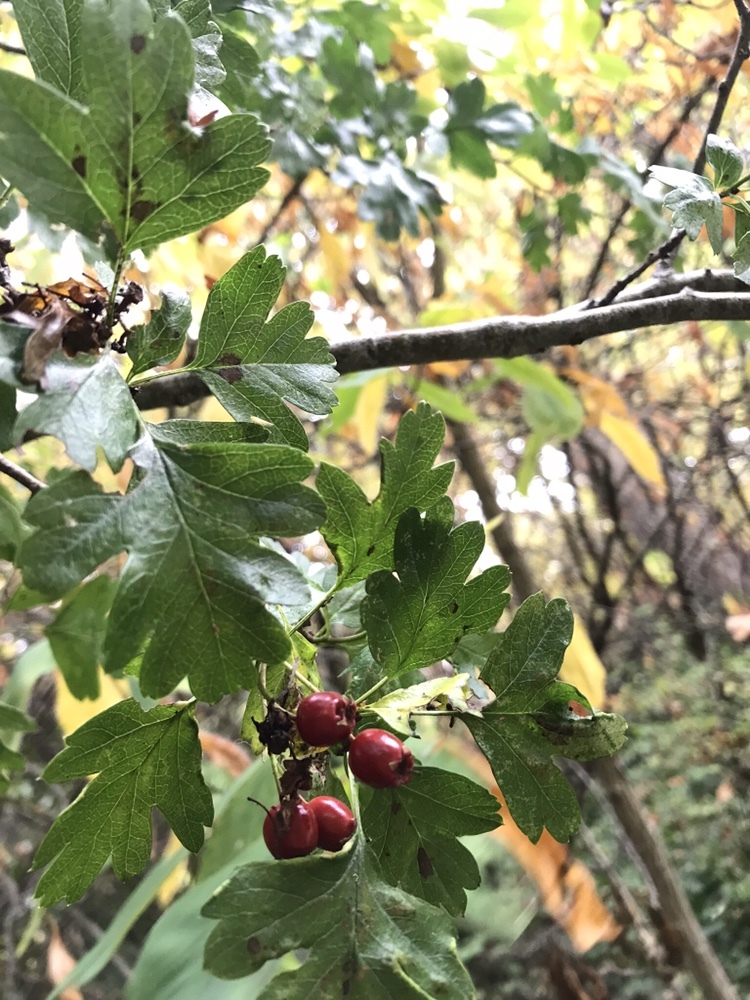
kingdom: Plantae
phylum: Tracheophyta
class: Magnoliopsida
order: Rosales
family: Rosaceae
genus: Crataegus
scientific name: Crataegus monogyna
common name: Hawthorn
